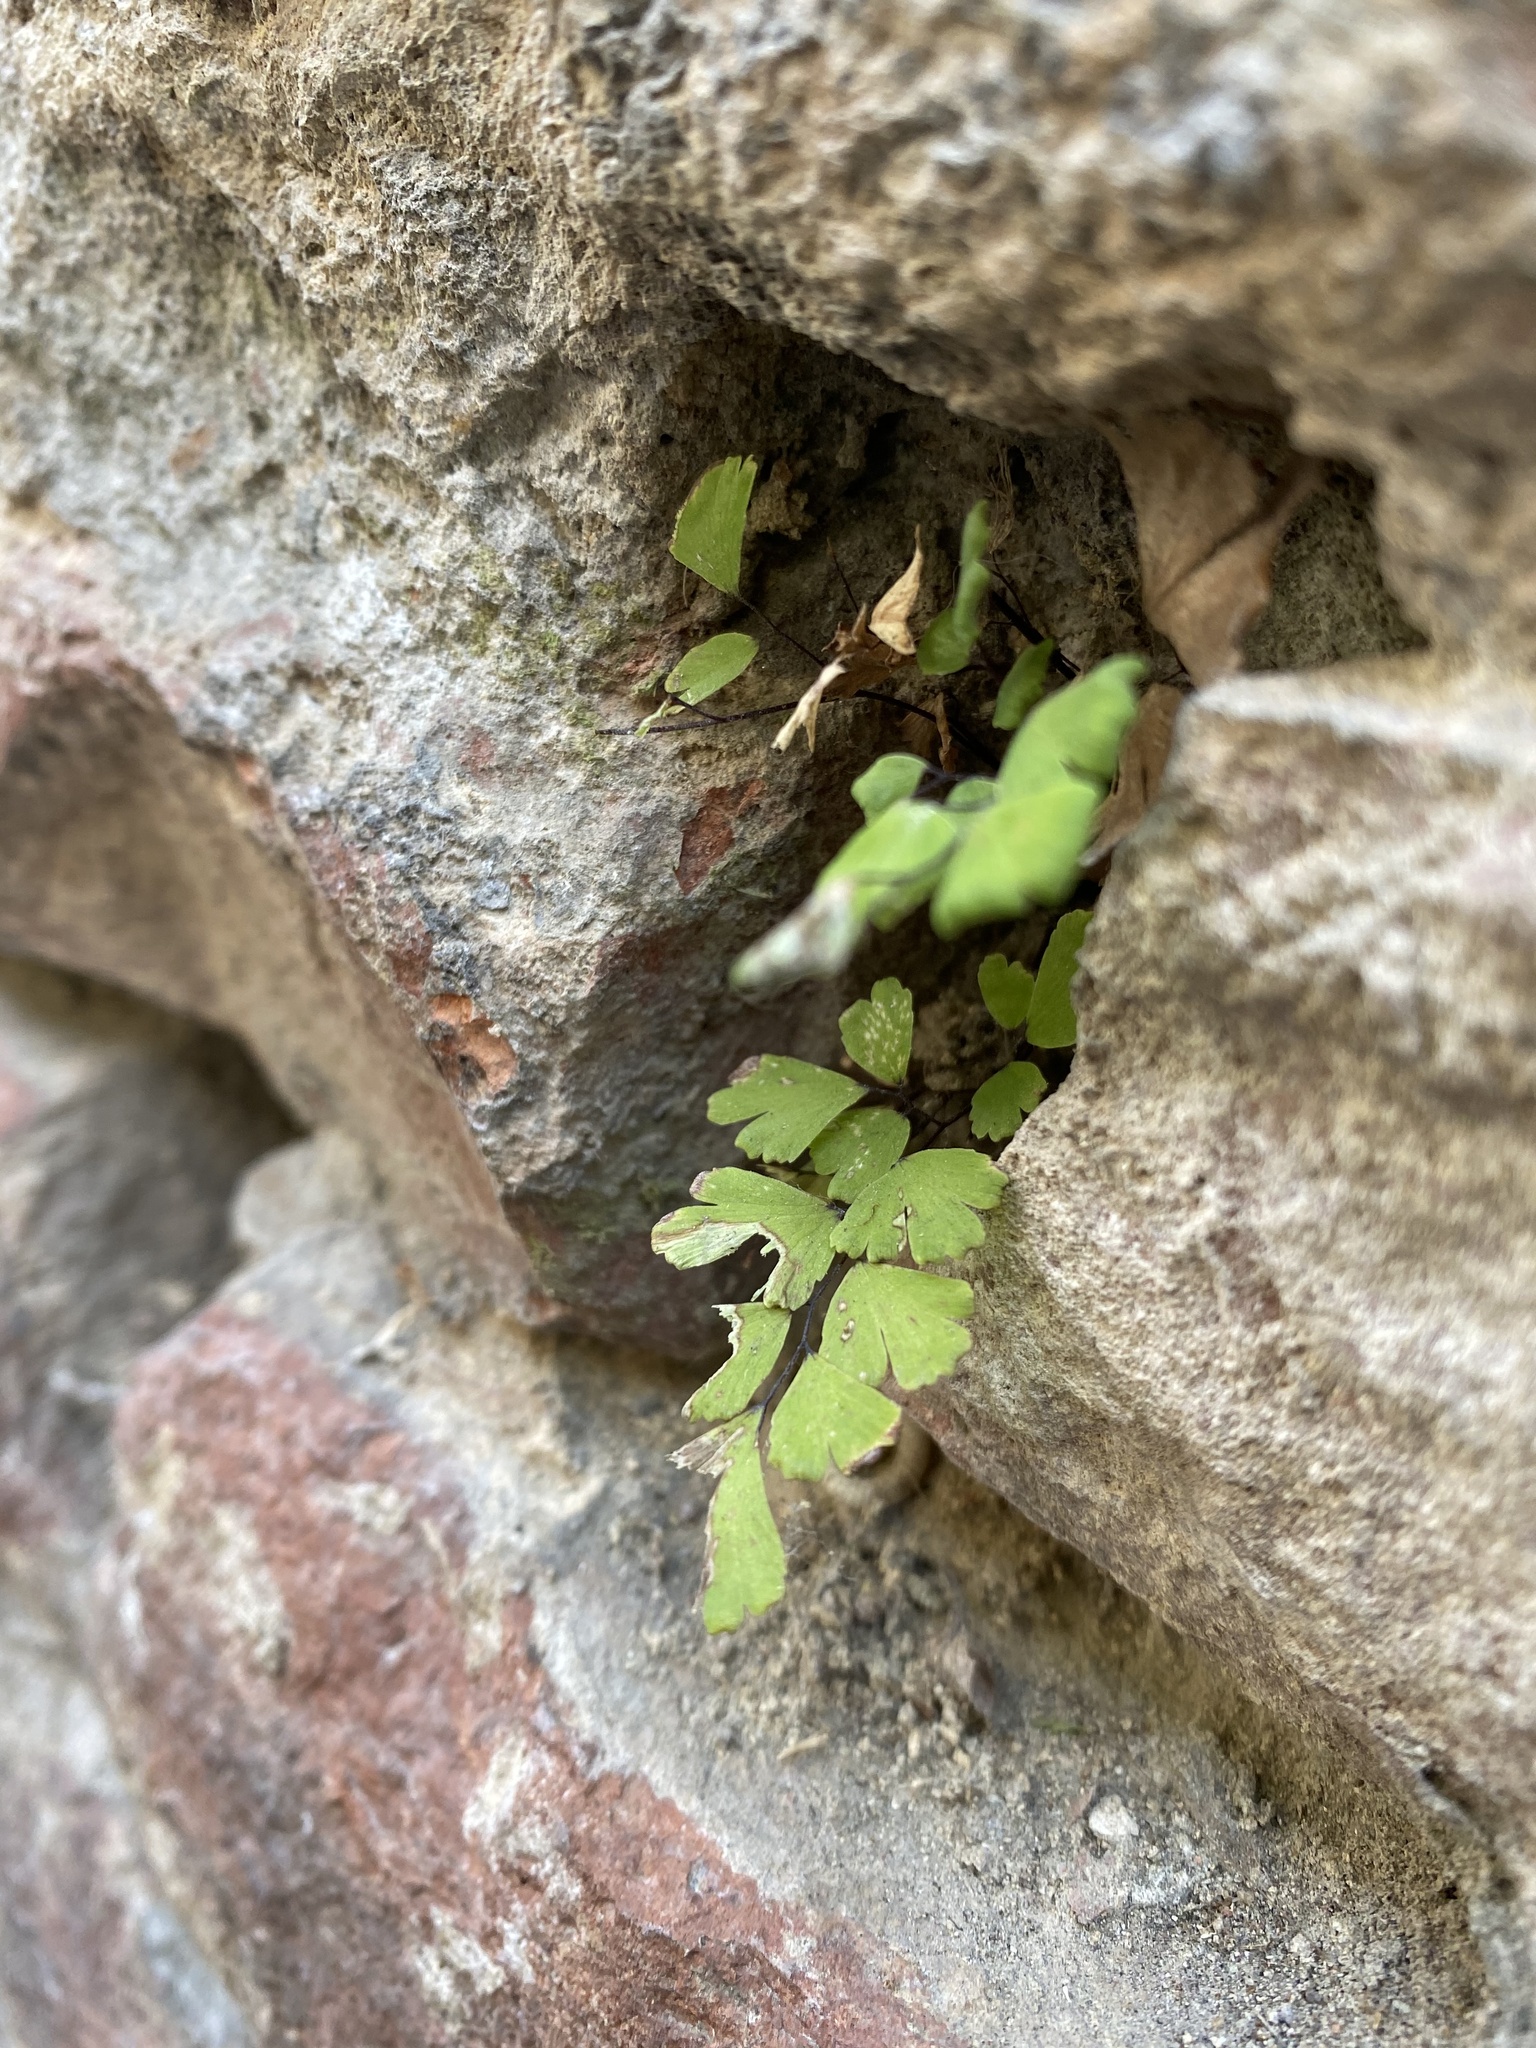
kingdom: Plantae
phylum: Tracheophyta
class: Polypodiopsida
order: Polypodiales
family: Pteridaceae
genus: Adiantum
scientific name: Adiantum capillus-veneris
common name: Maidenhair fern
